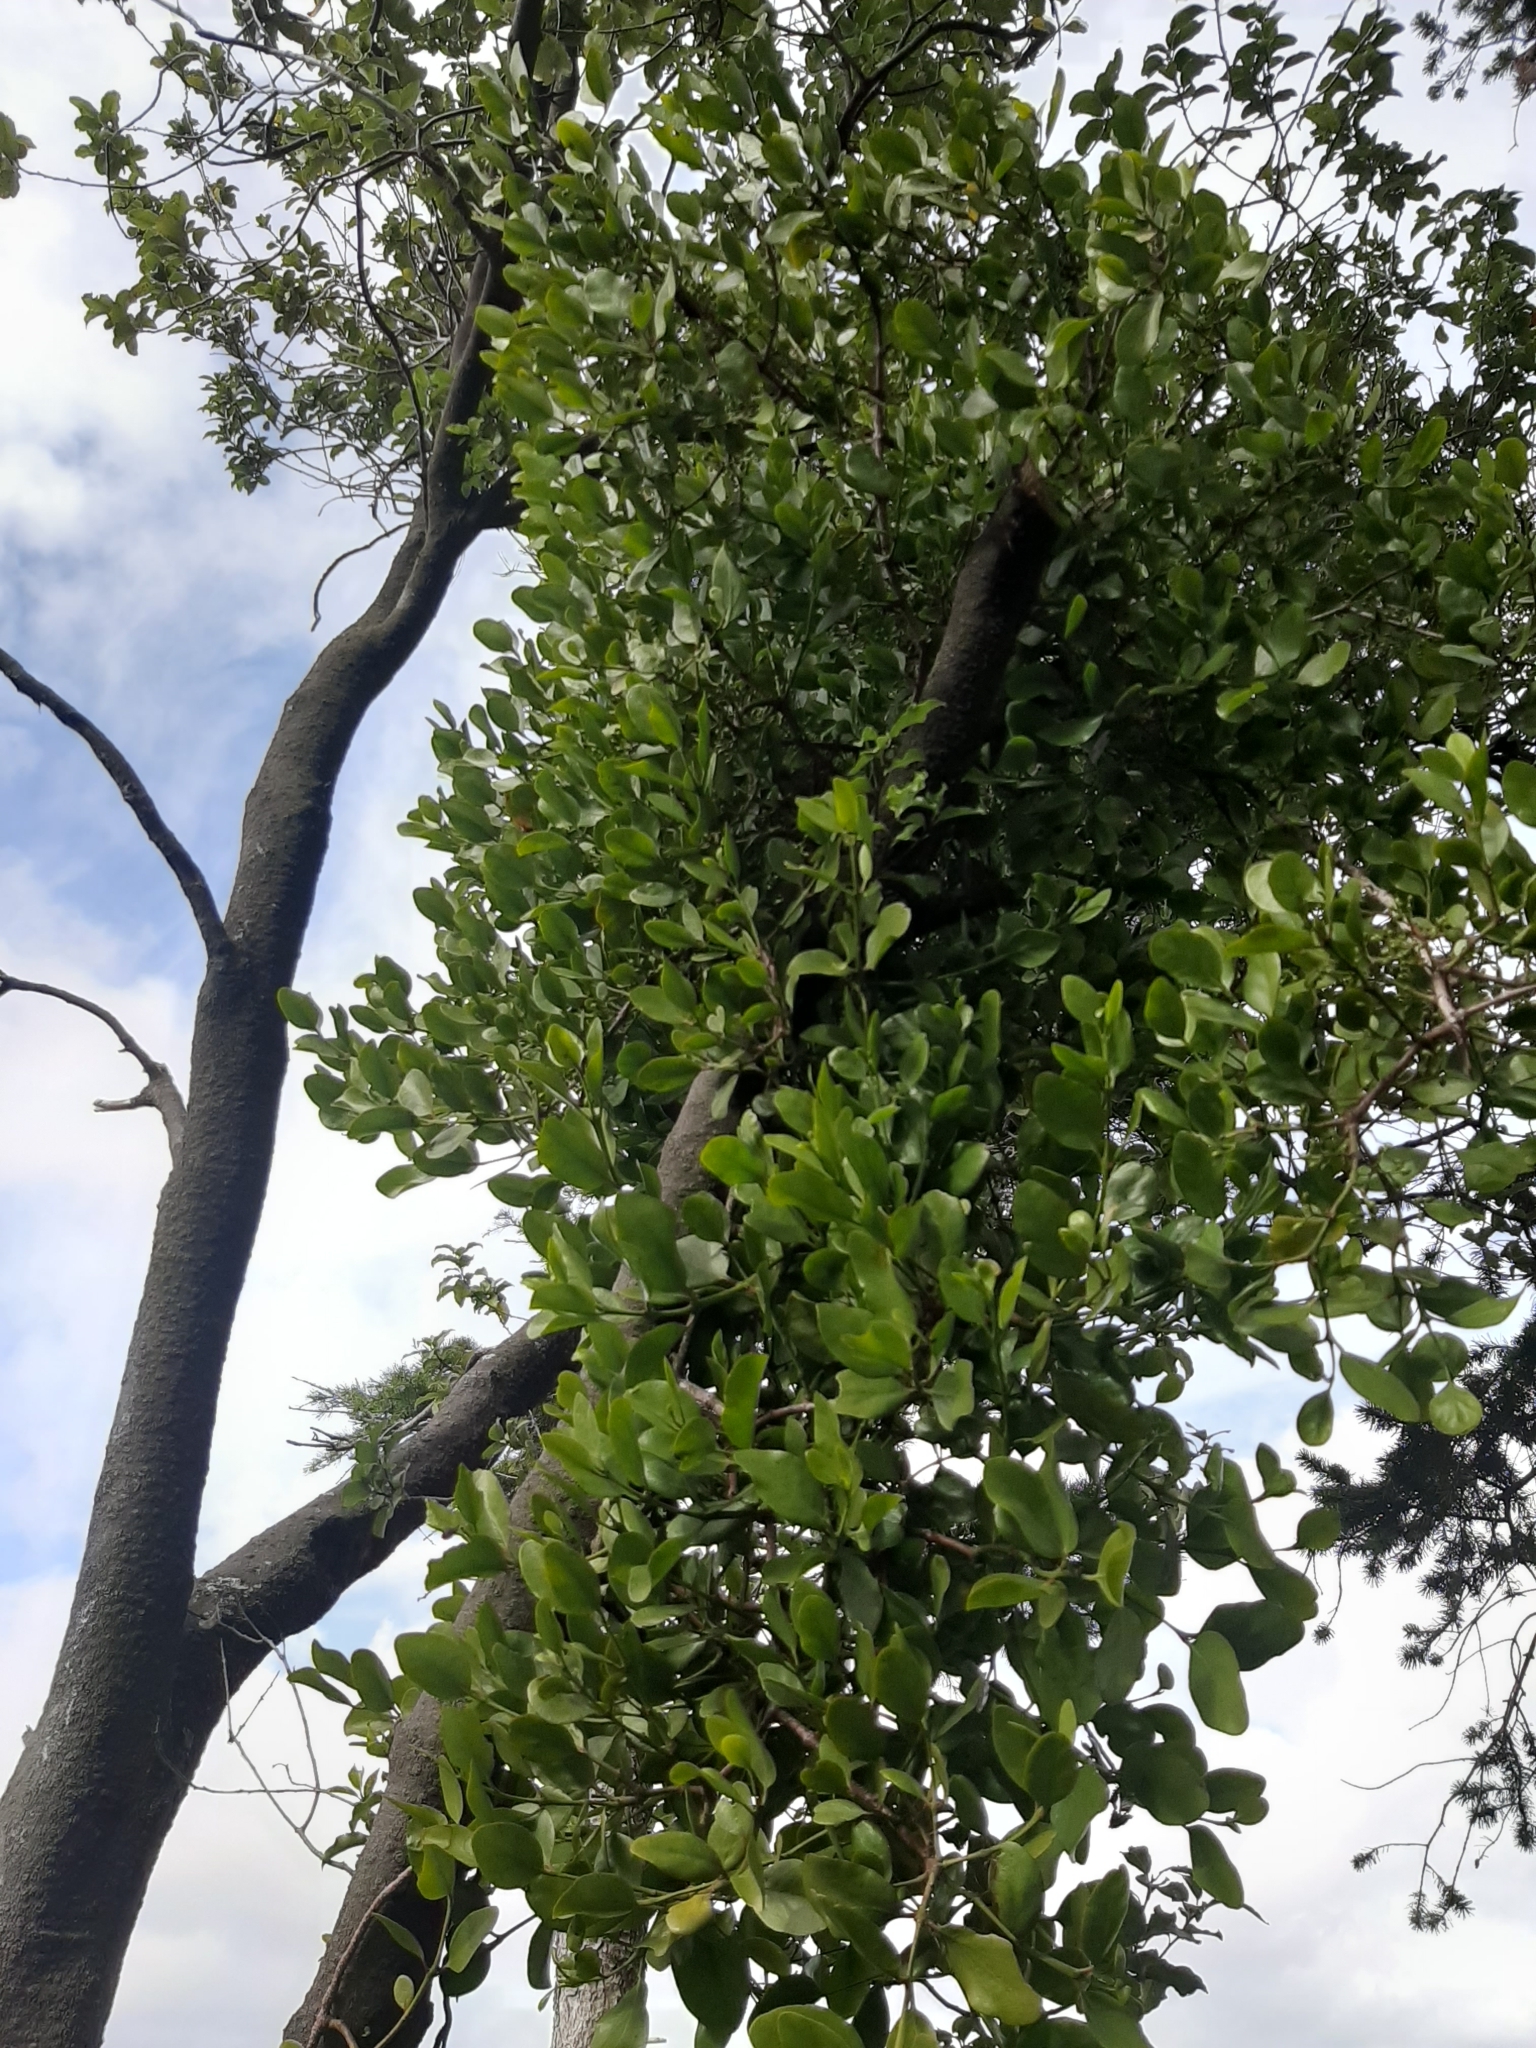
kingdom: Plantae
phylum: Tracheophyta
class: Magnoliopsida
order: Santalales
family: Loranthaceae
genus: Ileostylus
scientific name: Ileostylus micranthus
